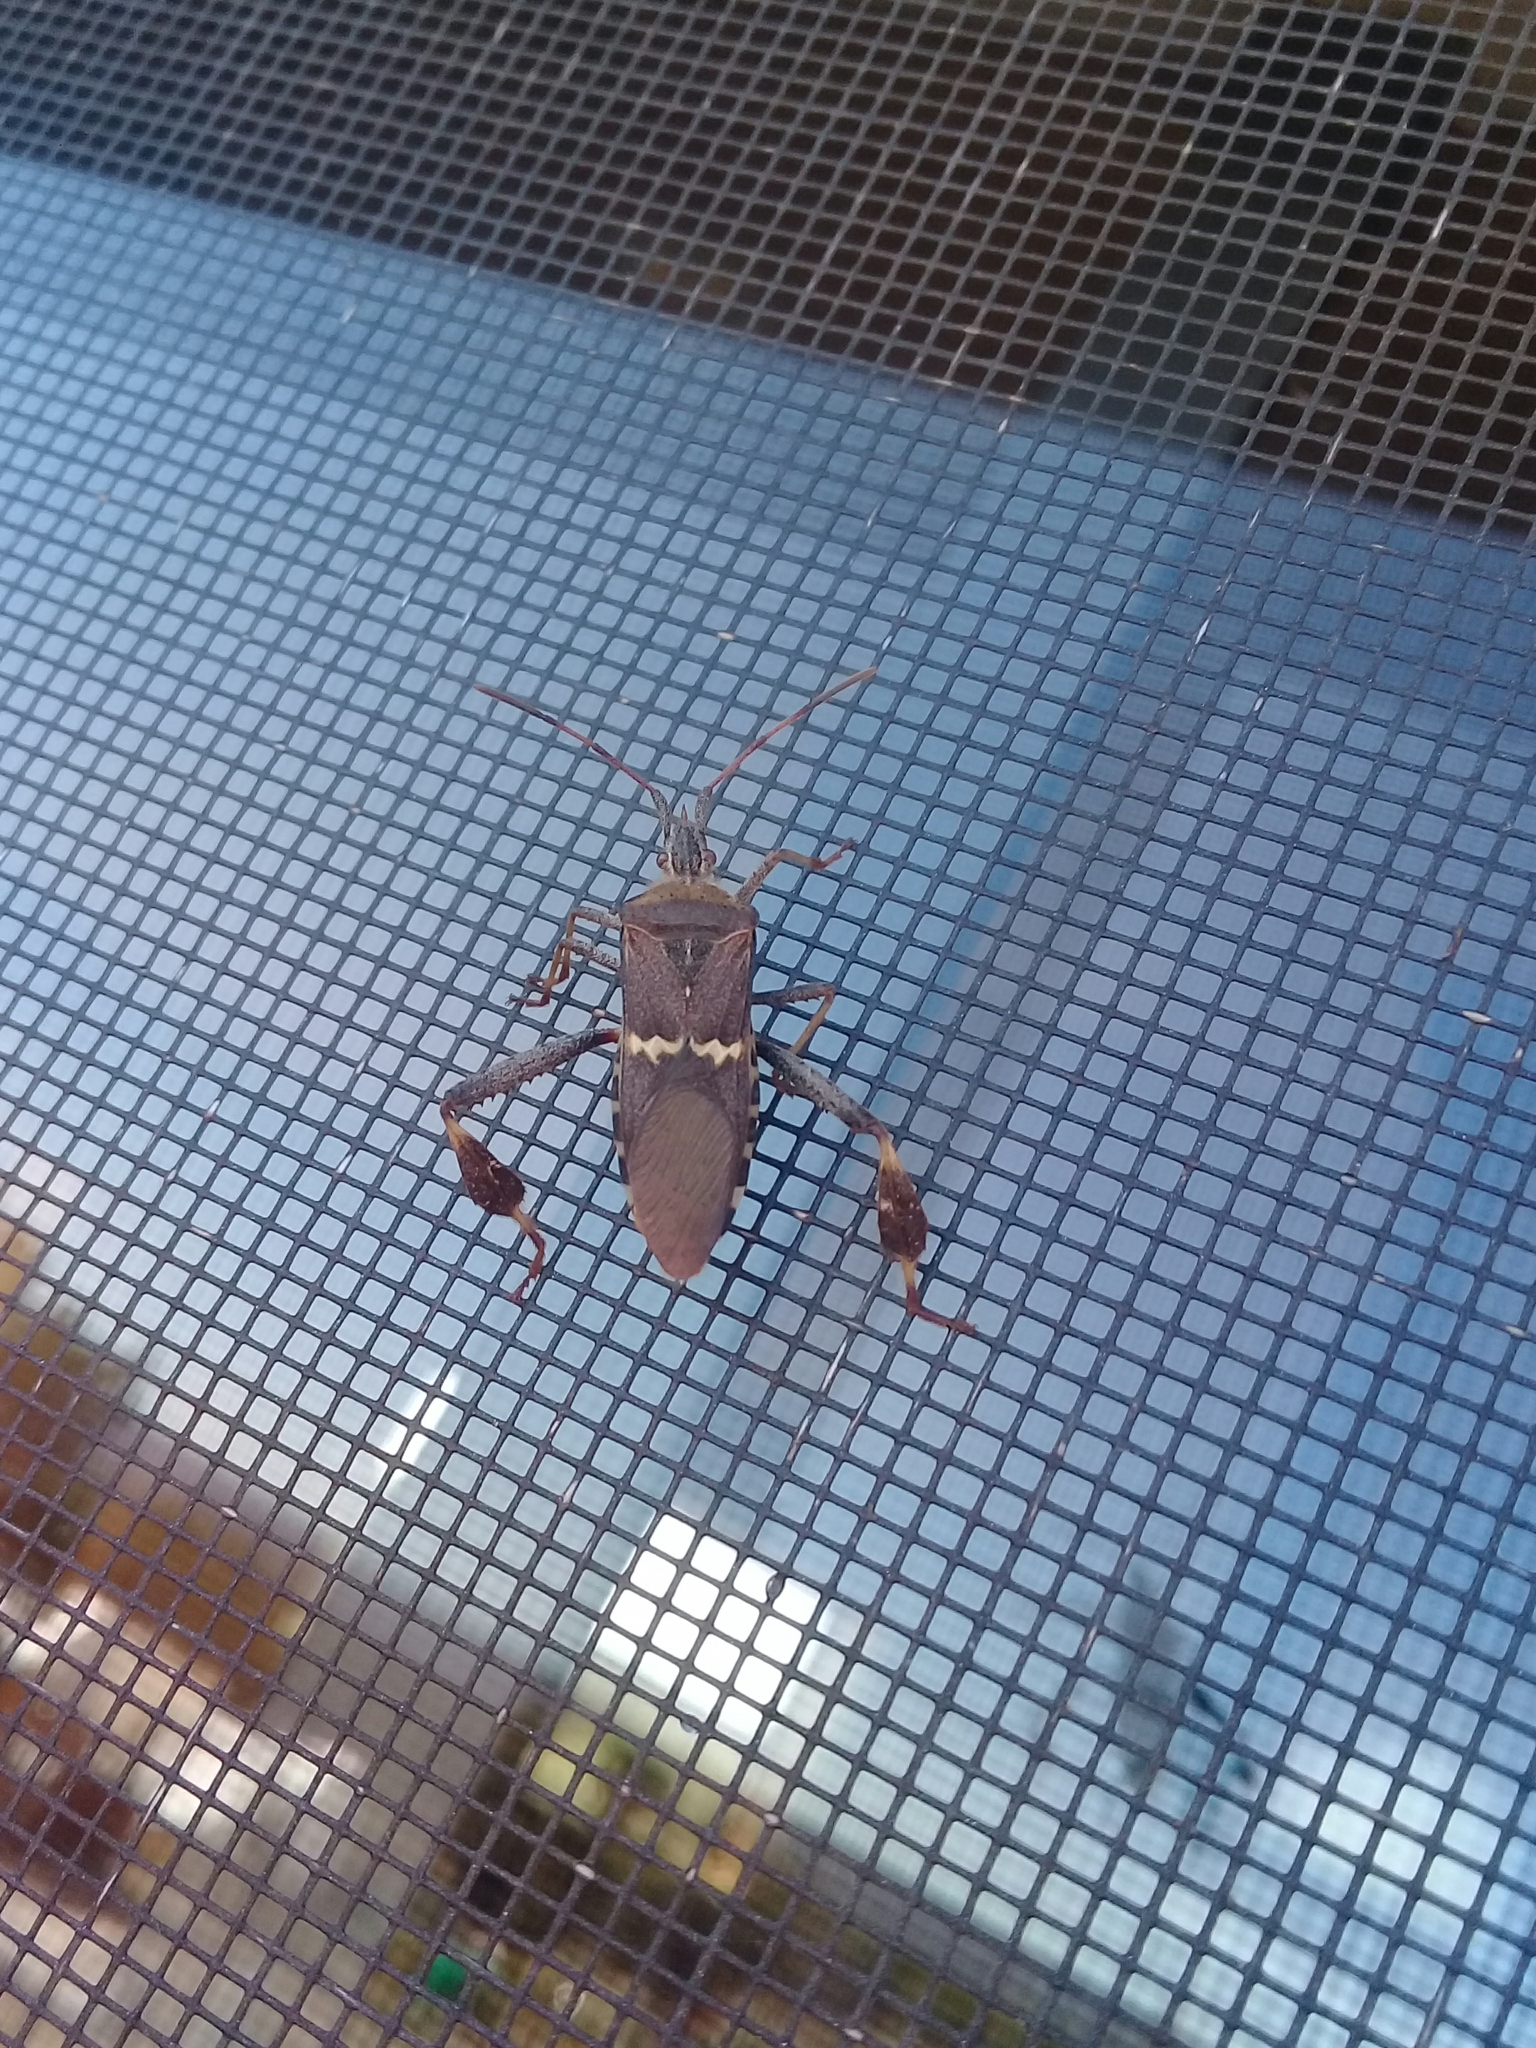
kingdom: Animalia
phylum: Arthropoda
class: Insecta
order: Hemiptera
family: Coreidae
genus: Leptoglossus
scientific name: Leptoglossus clypealis
